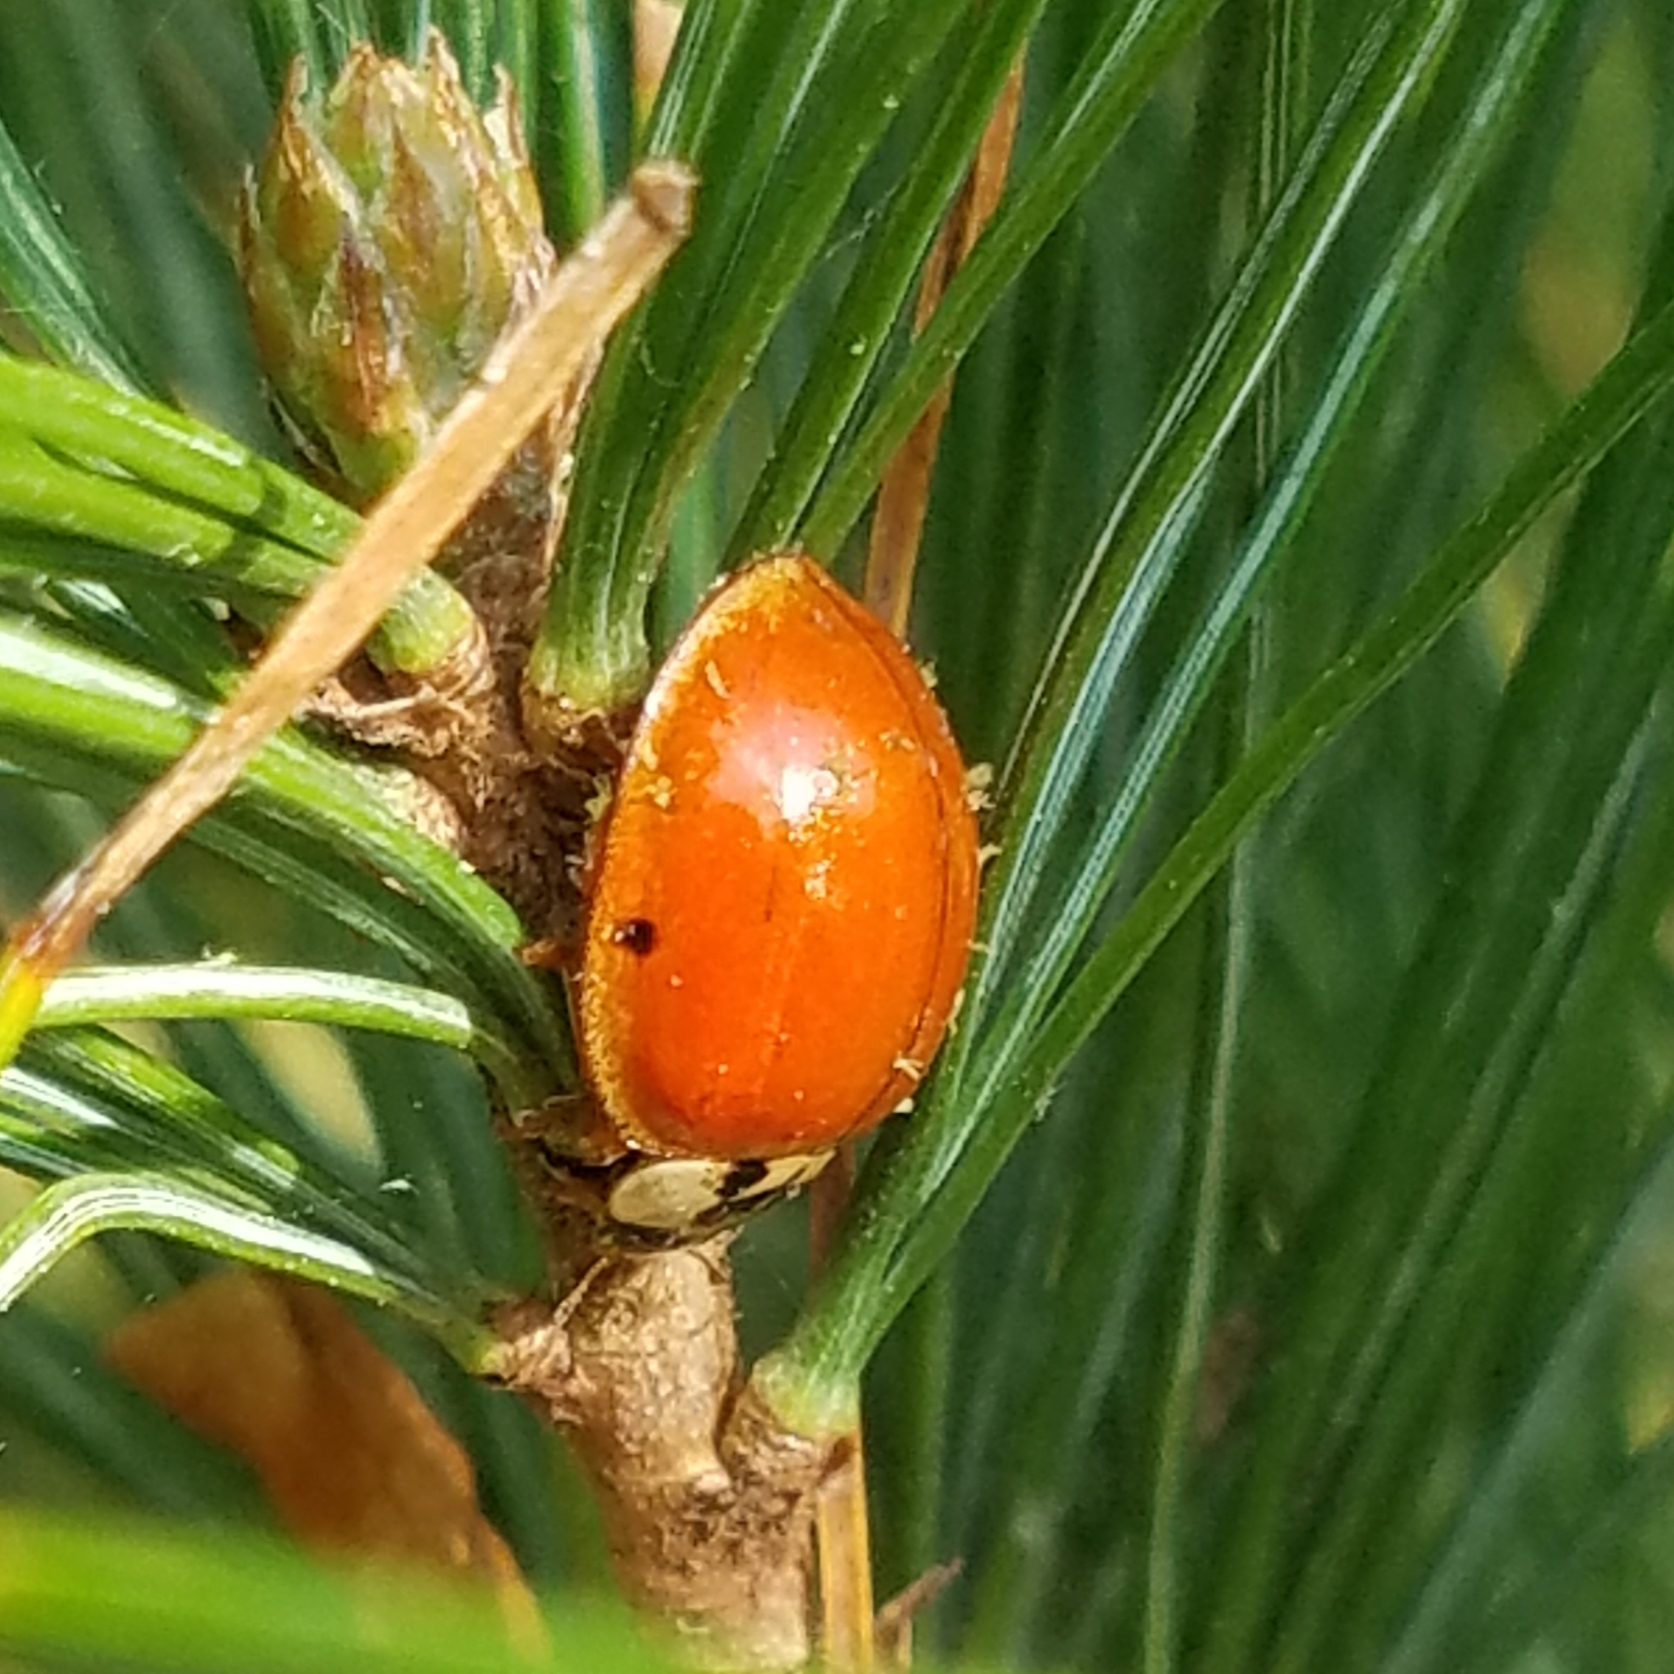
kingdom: Animalia
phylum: Arthropoda
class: Insecta
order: Coleoptera
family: Coccinellidae
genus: Harmonia
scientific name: Harmonia axyridis
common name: Harlequin ladybird
